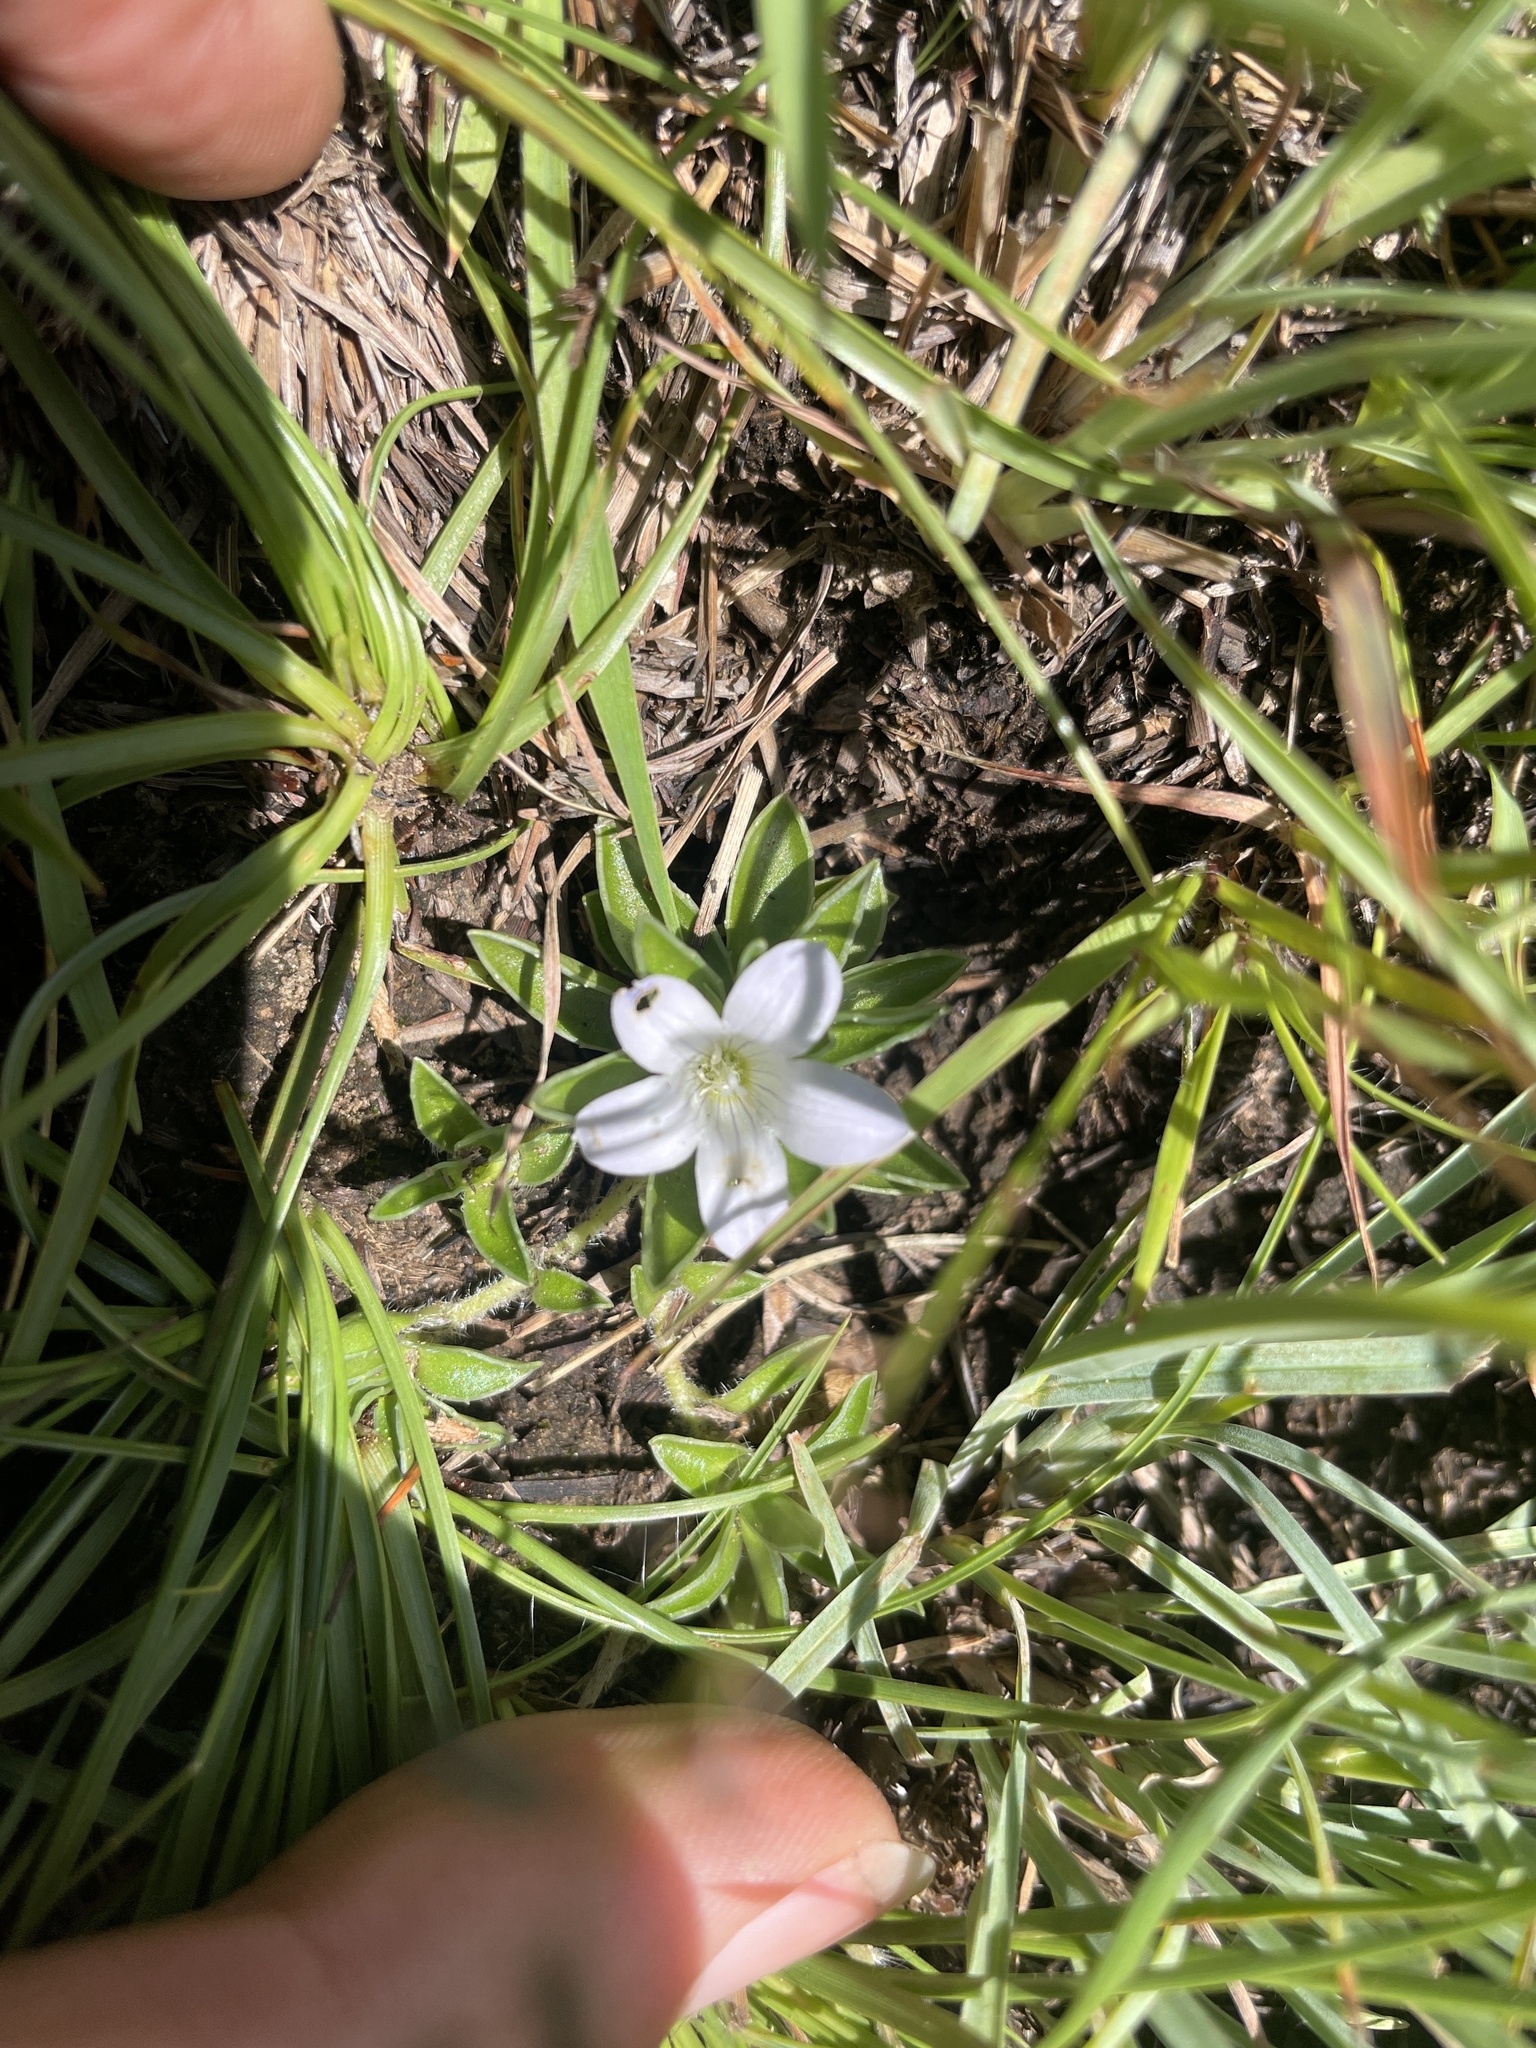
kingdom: Plantae
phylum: Tracheophyta
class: Magnoliopsida
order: Asterales
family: Campanulaceae
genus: Craterocapsa
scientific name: Craterocapsa tarsodes
